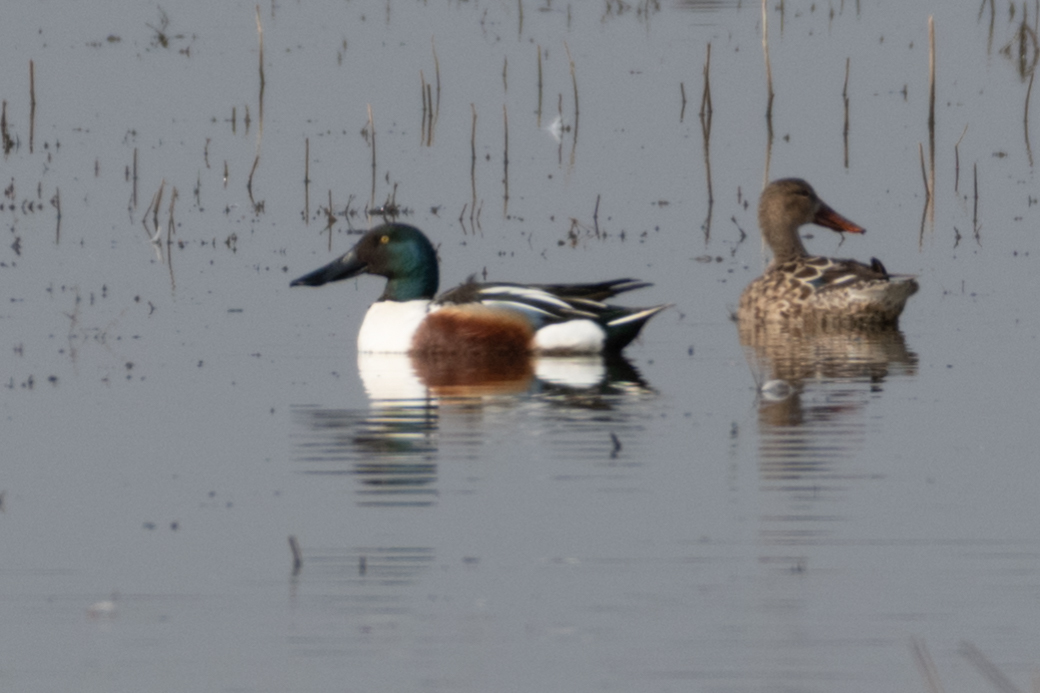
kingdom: Animalia
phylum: Chordata
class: Aves
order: Anseriformes
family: Anatidae
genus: Spatula
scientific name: Spatula clypeata
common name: Northern shoveler
